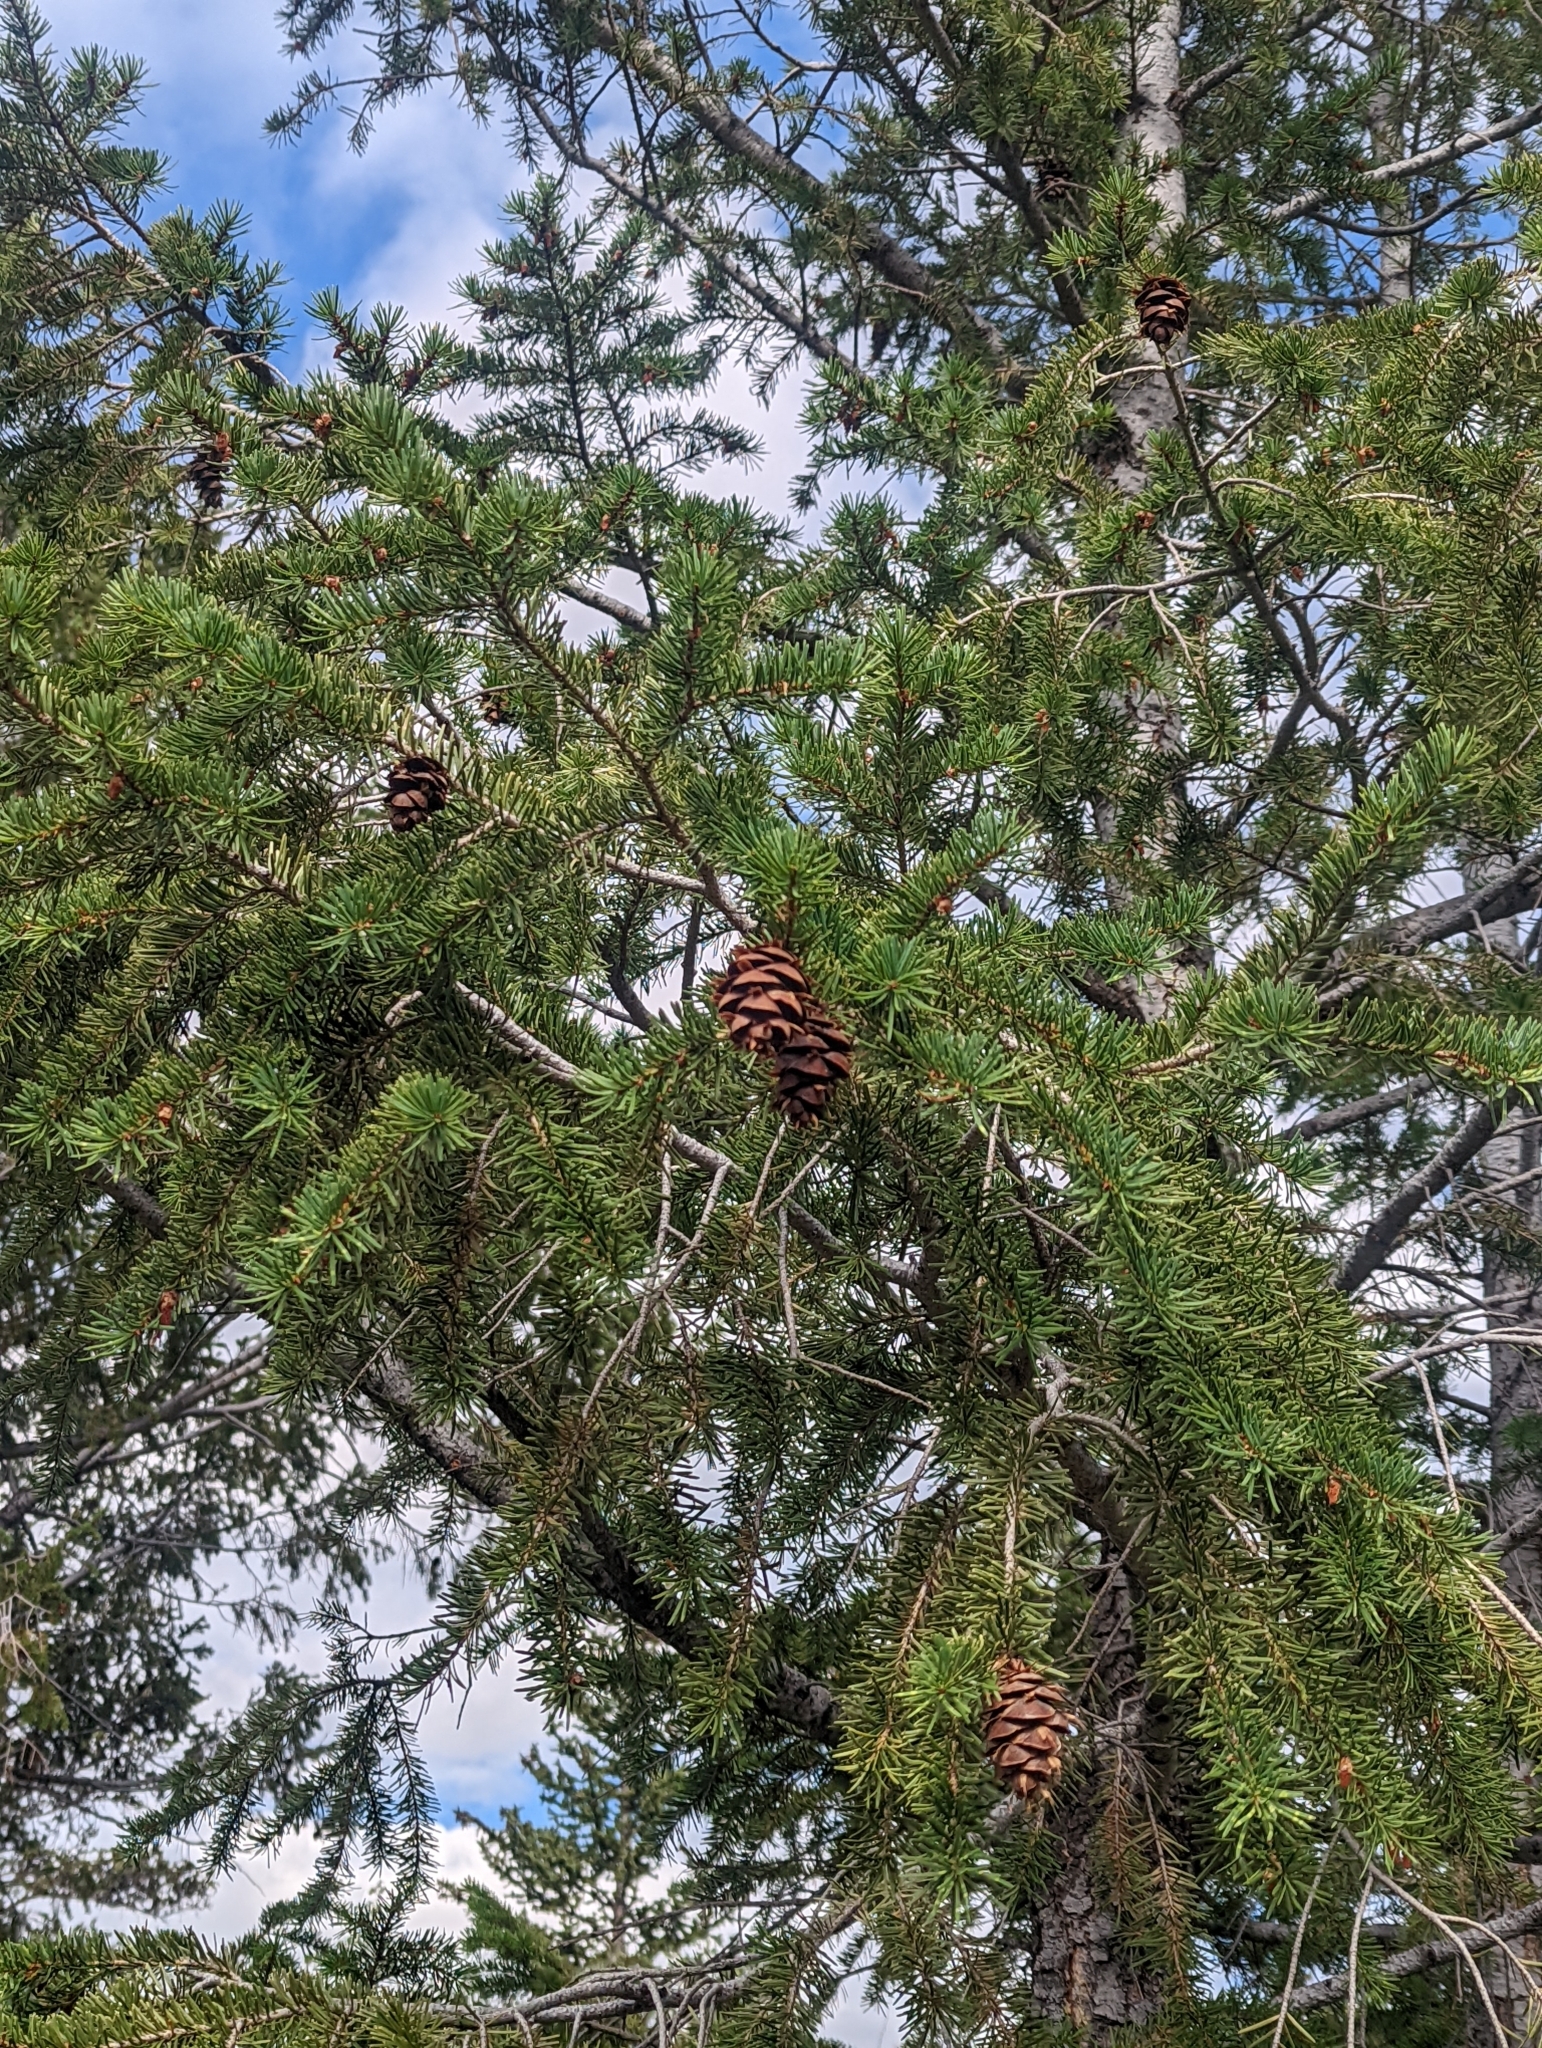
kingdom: Plantae
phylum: Tracheophyta
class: Pinopsida
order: Pinales
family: Pinaceae
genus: Pseudotsuga
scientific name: Pseudotsuga menziesii
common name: Douglas fir
